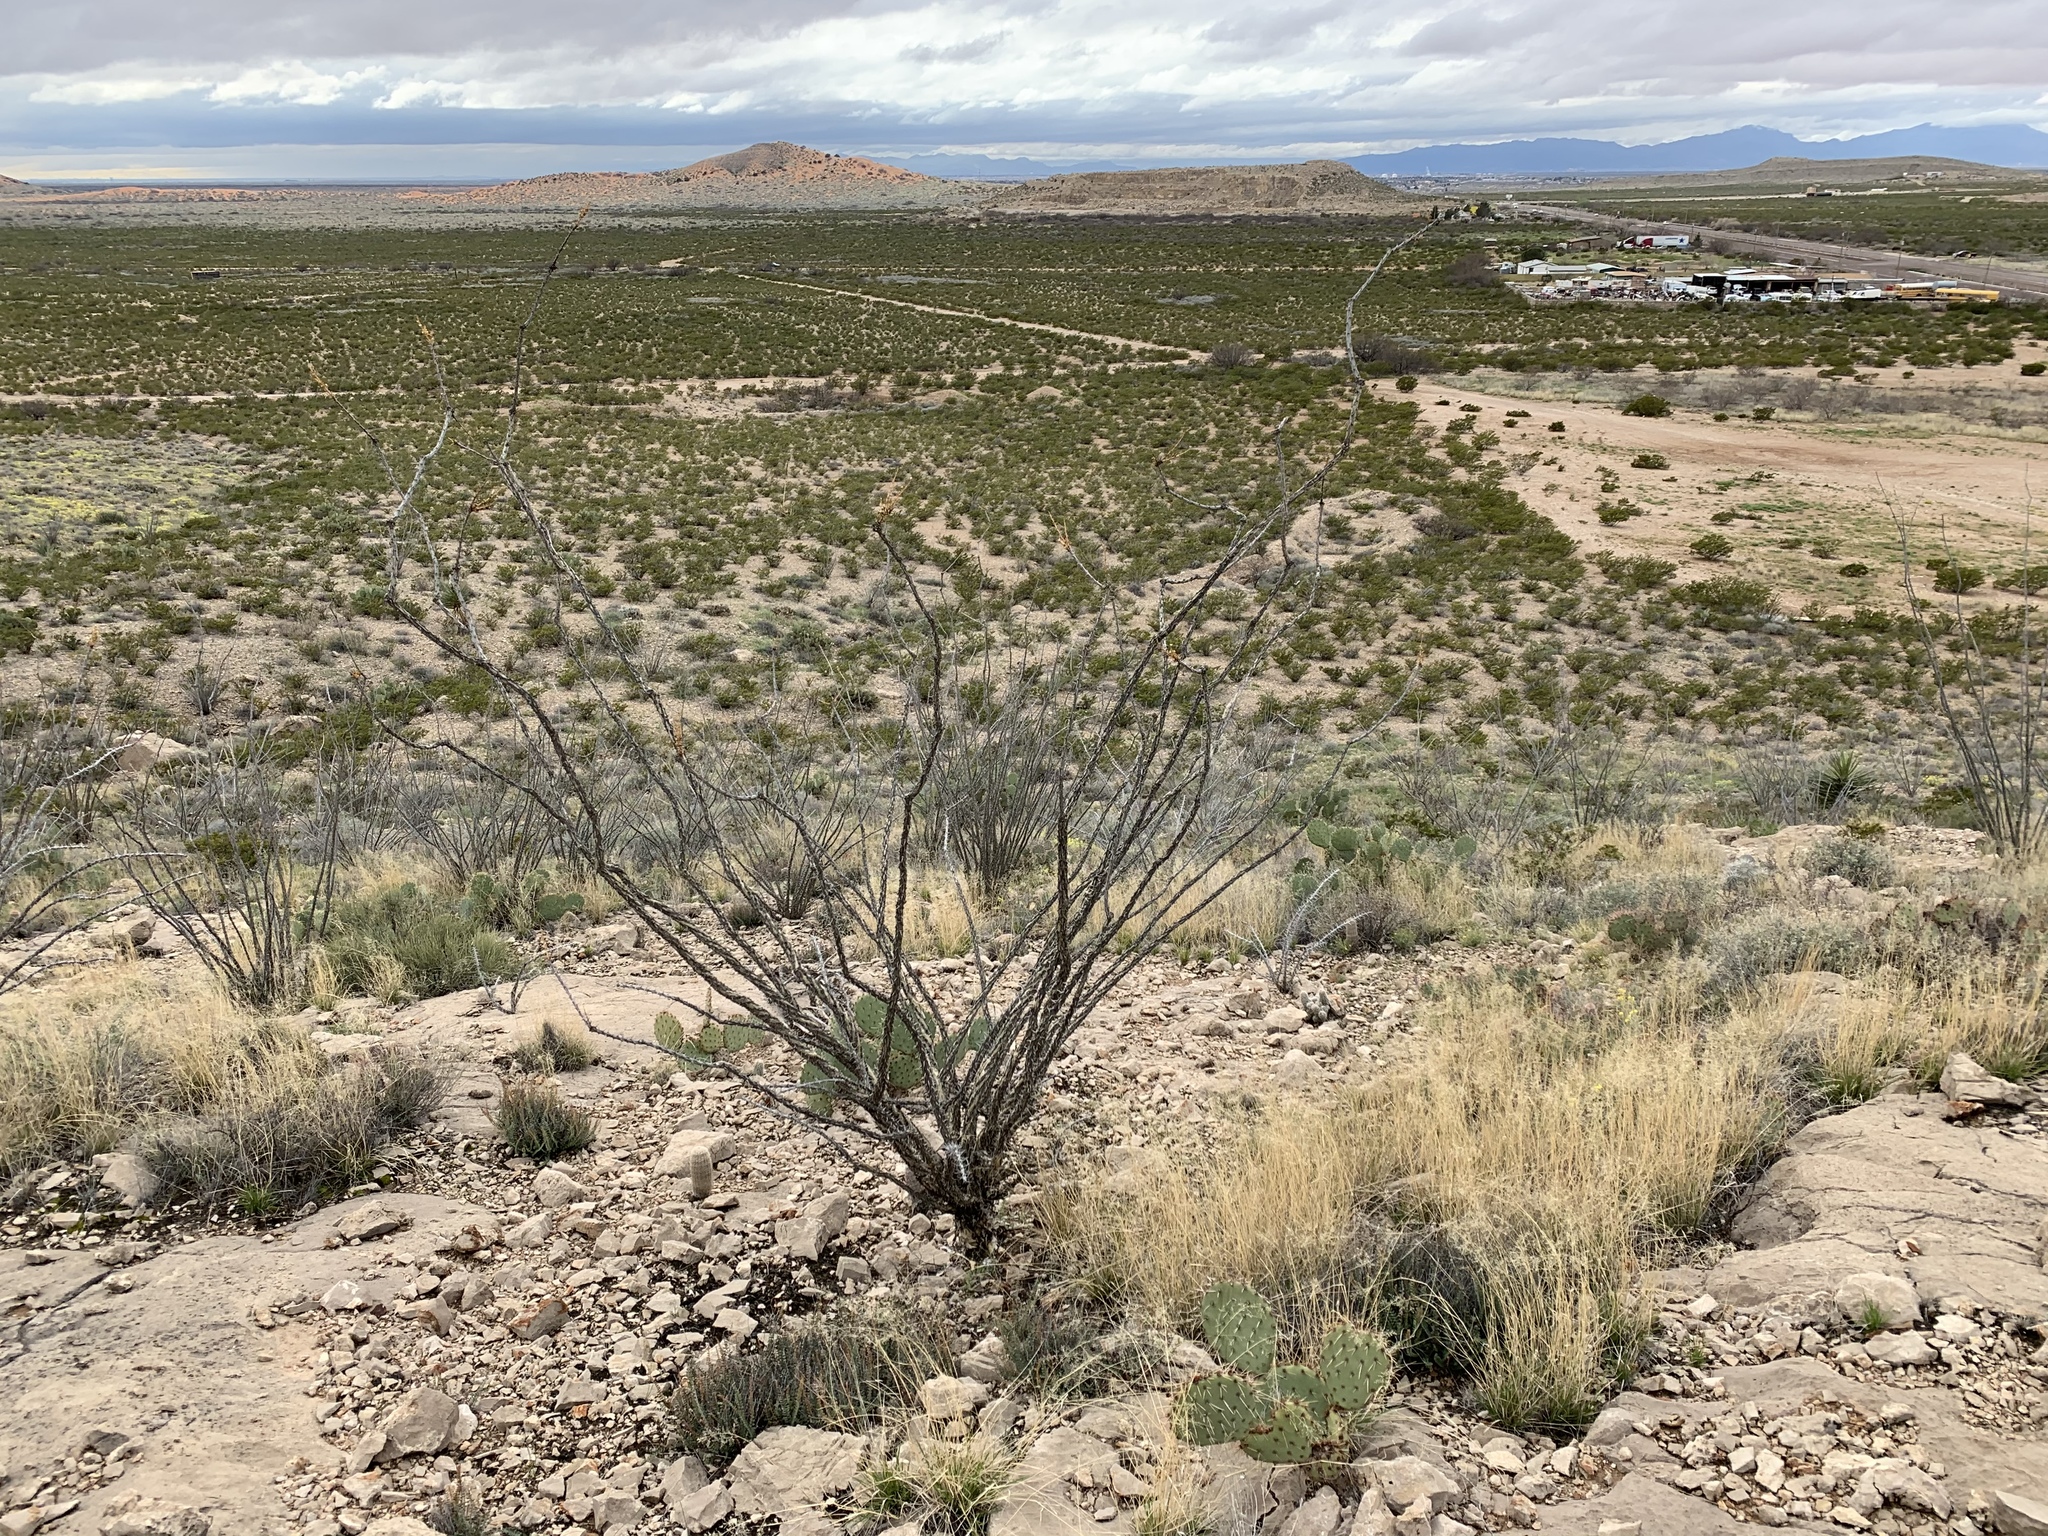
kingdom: Plantae
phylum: Tracheophyta
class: Magnoliopsida
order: Ericales
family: Fouquieriaceae
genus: Fouquieria
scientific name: Fouquieria splendens
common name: Vine-cactus
